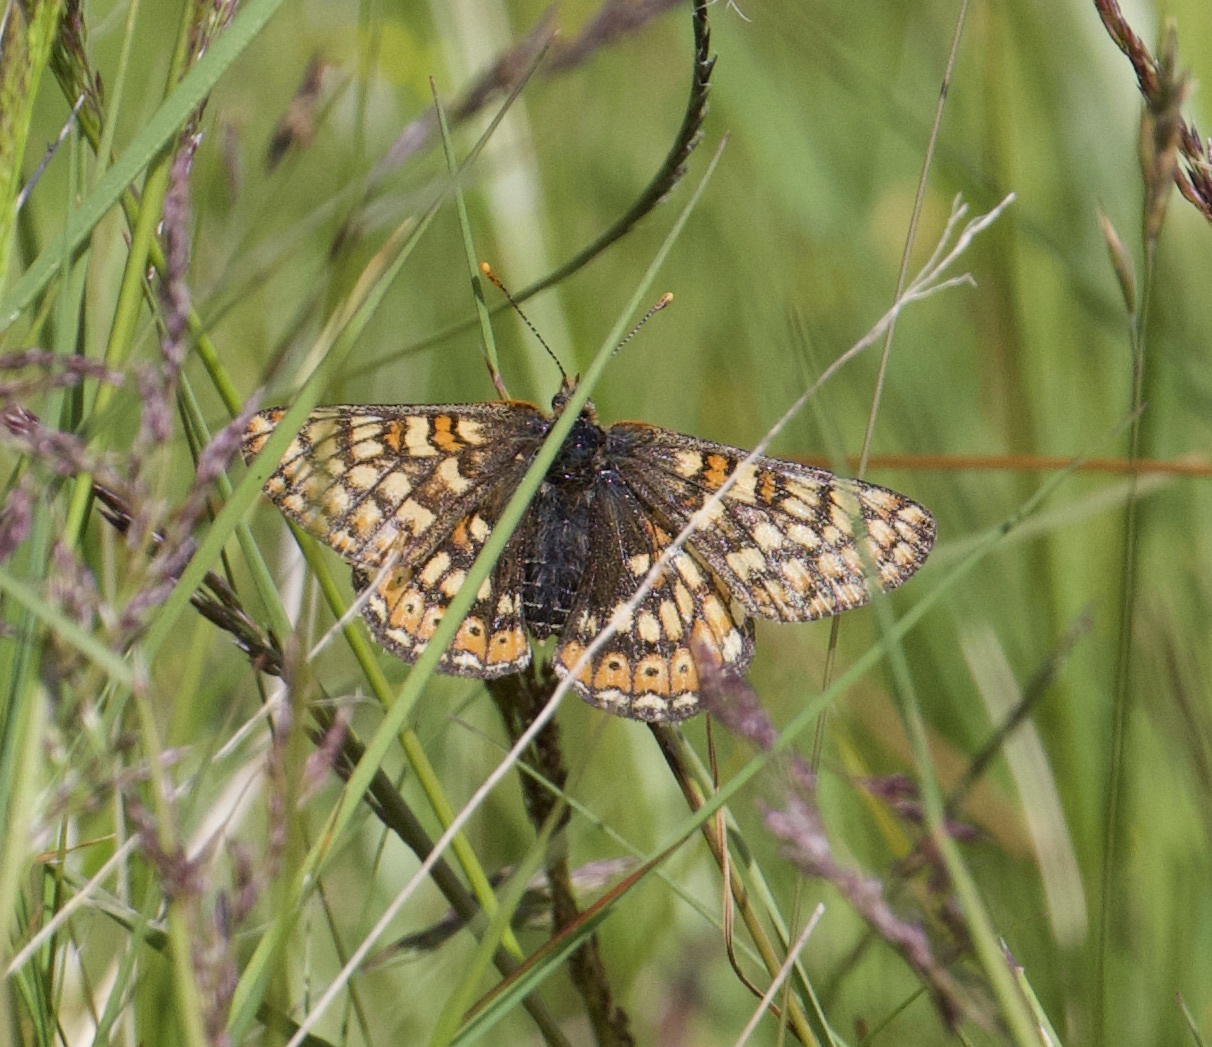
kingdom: Animalia
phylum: Arthropoda
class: Insecta
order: Lepidoptera
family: Nymphalidae
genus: Euphydryas
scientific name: Euphydryas aurinia
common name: Marsh fritillary
